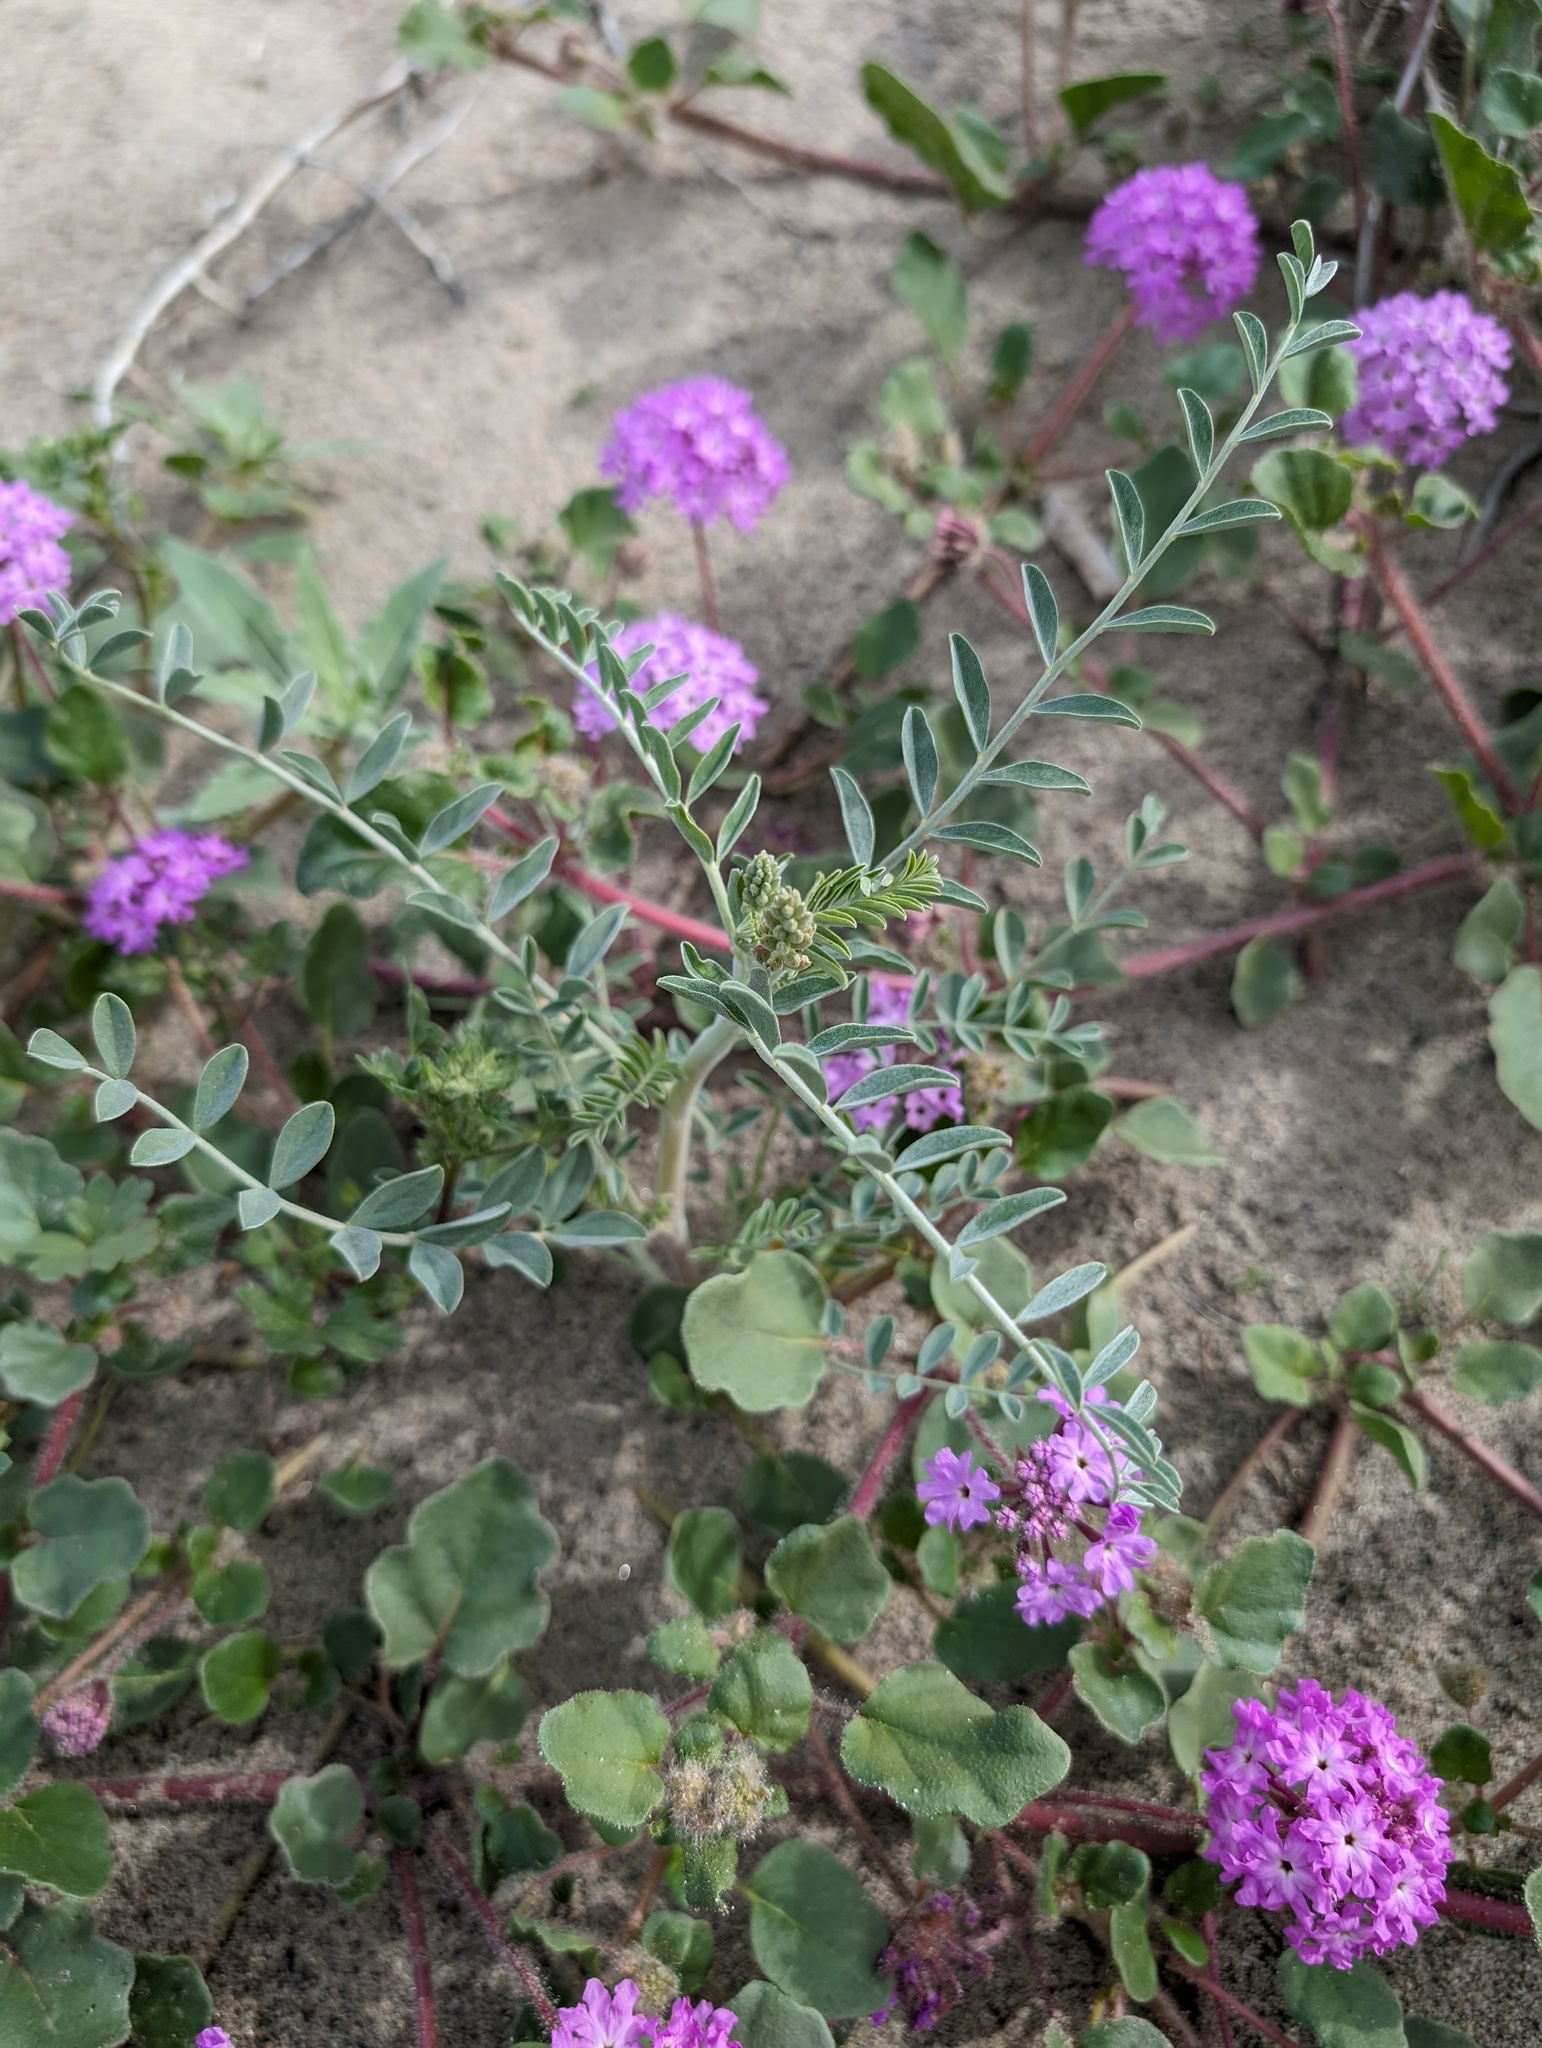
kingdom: Plantae
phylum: Tracheophyta
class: Magnoliopsida
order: Fabales
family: Fabaceae
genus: Astragalus
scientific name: Astragalus aridus
